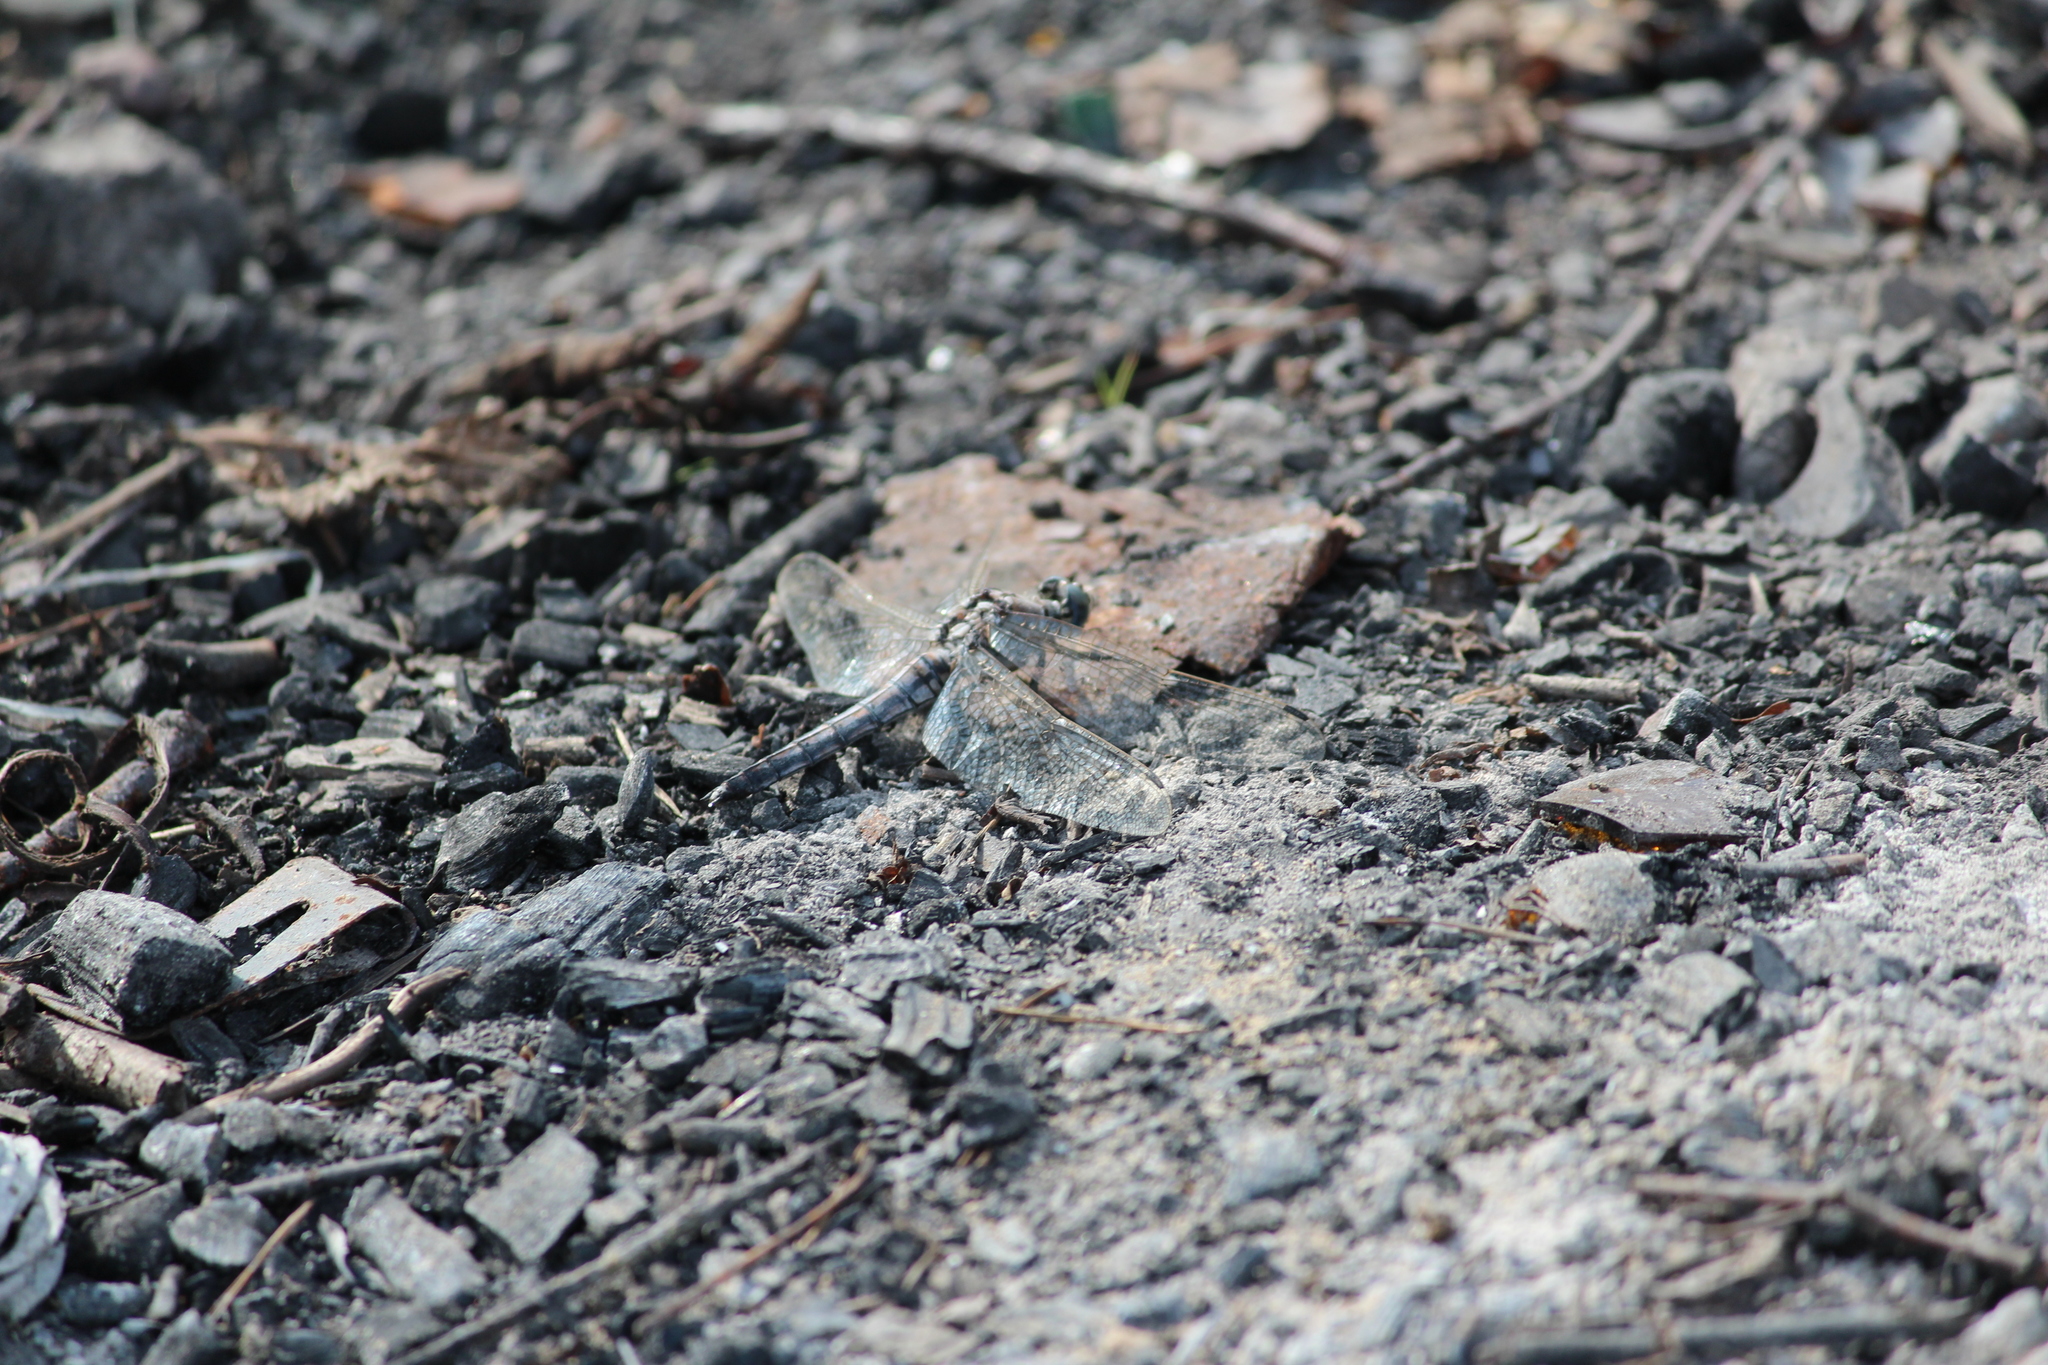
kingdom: Animalia
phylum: Arthropoda
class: Insecta
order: Odonata
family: Libellulidae
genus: Orthetrum
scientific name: Orthetrum cancellatum
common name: Black-tailed skimmer
